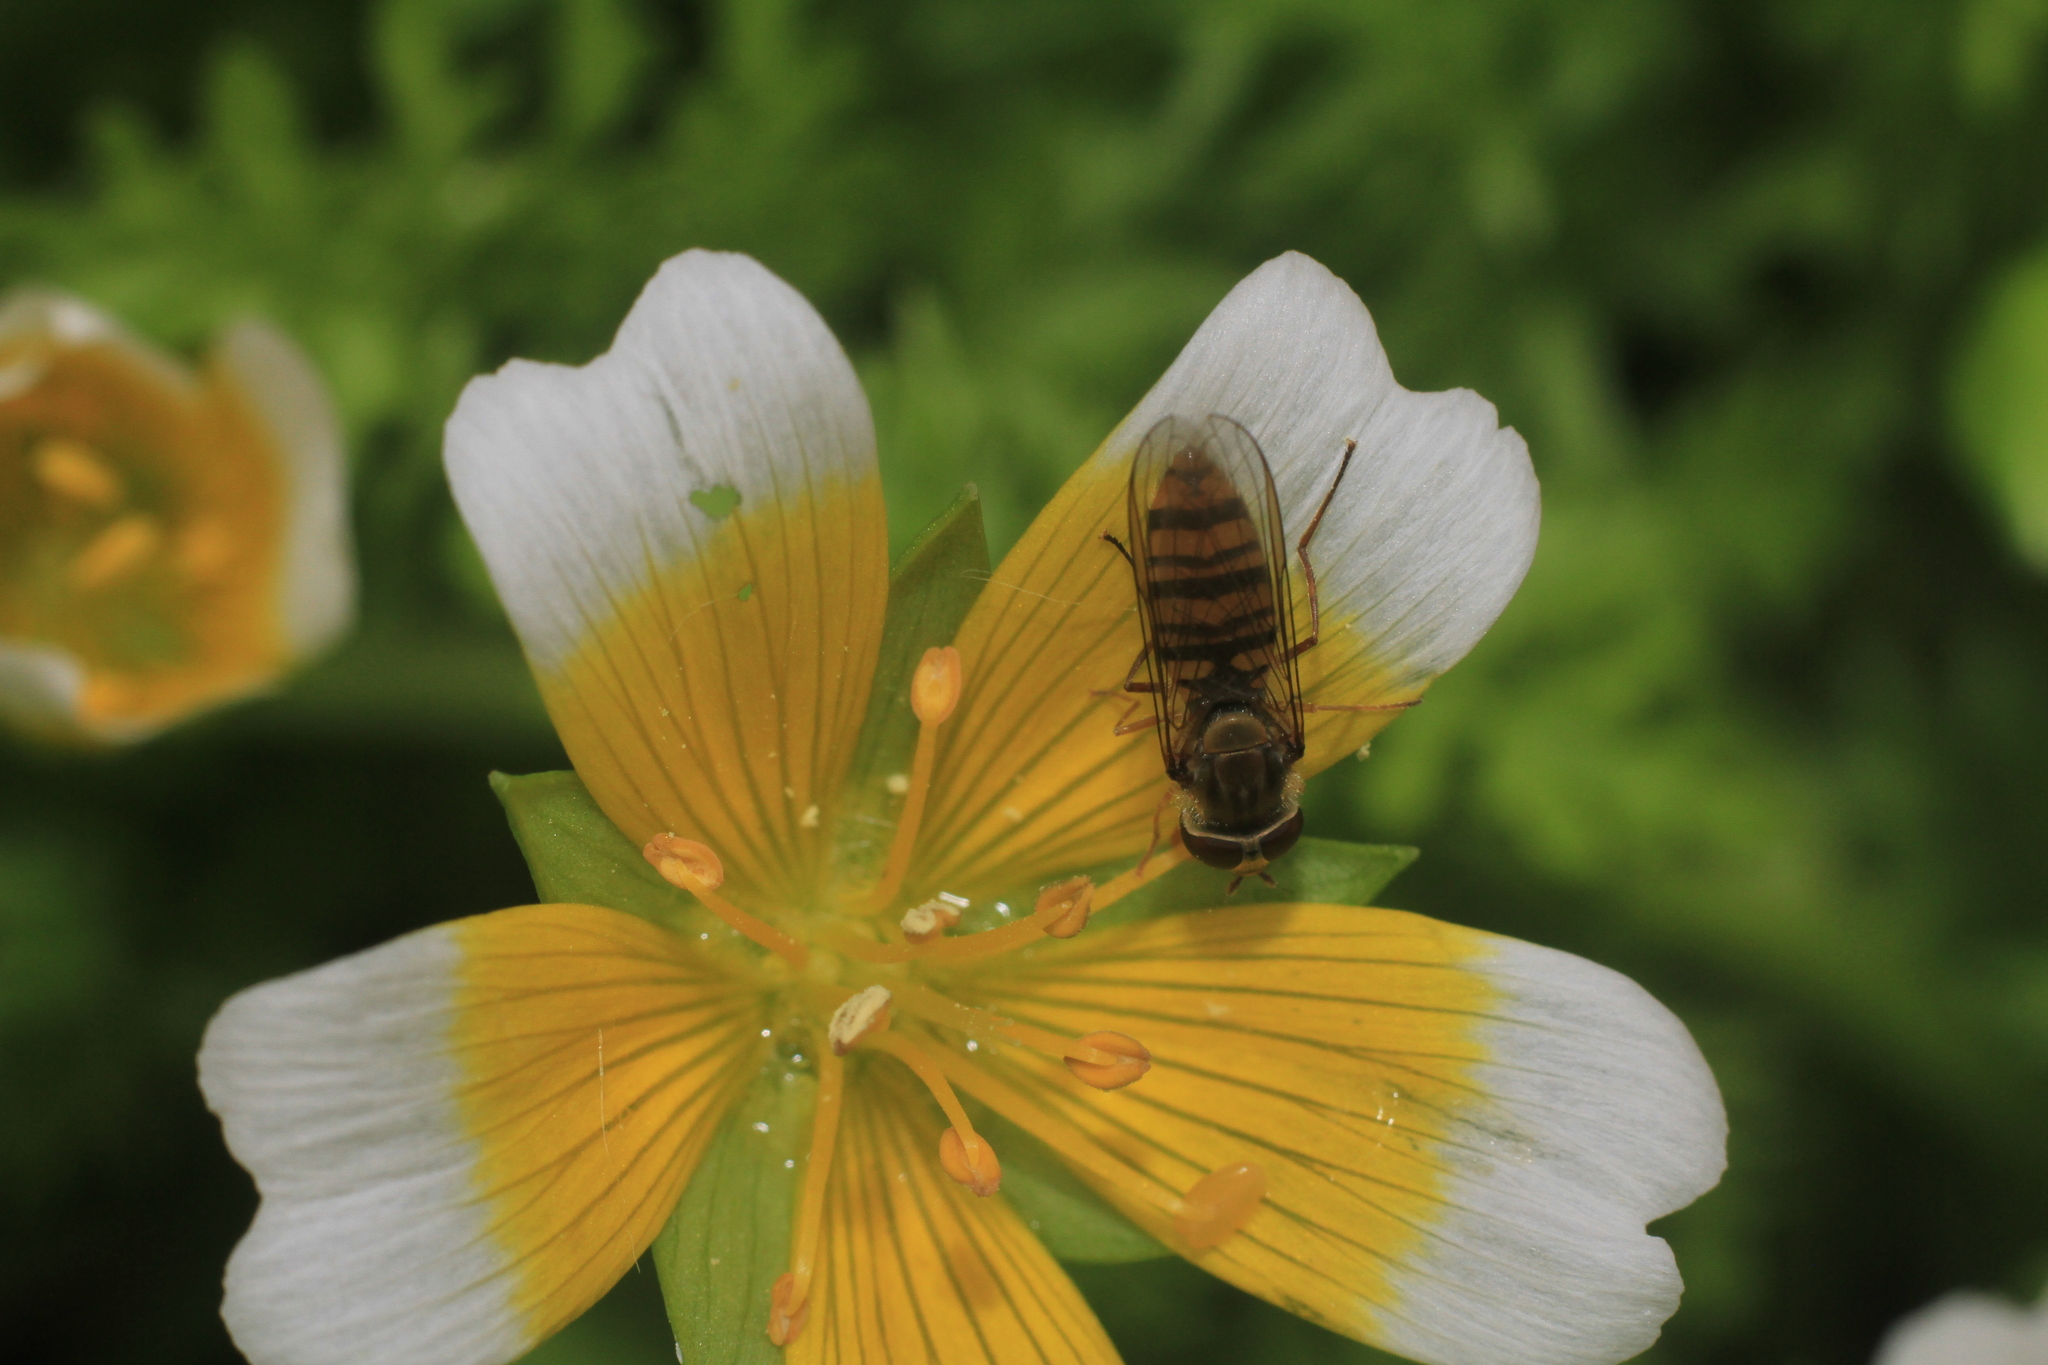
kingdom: Animalia
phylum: Arthropoda
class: Insecta
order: Diptera
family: Syrphidae
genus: Episyrphus
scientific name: Episyrphus balteatus
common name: Marmalade hoverfly
